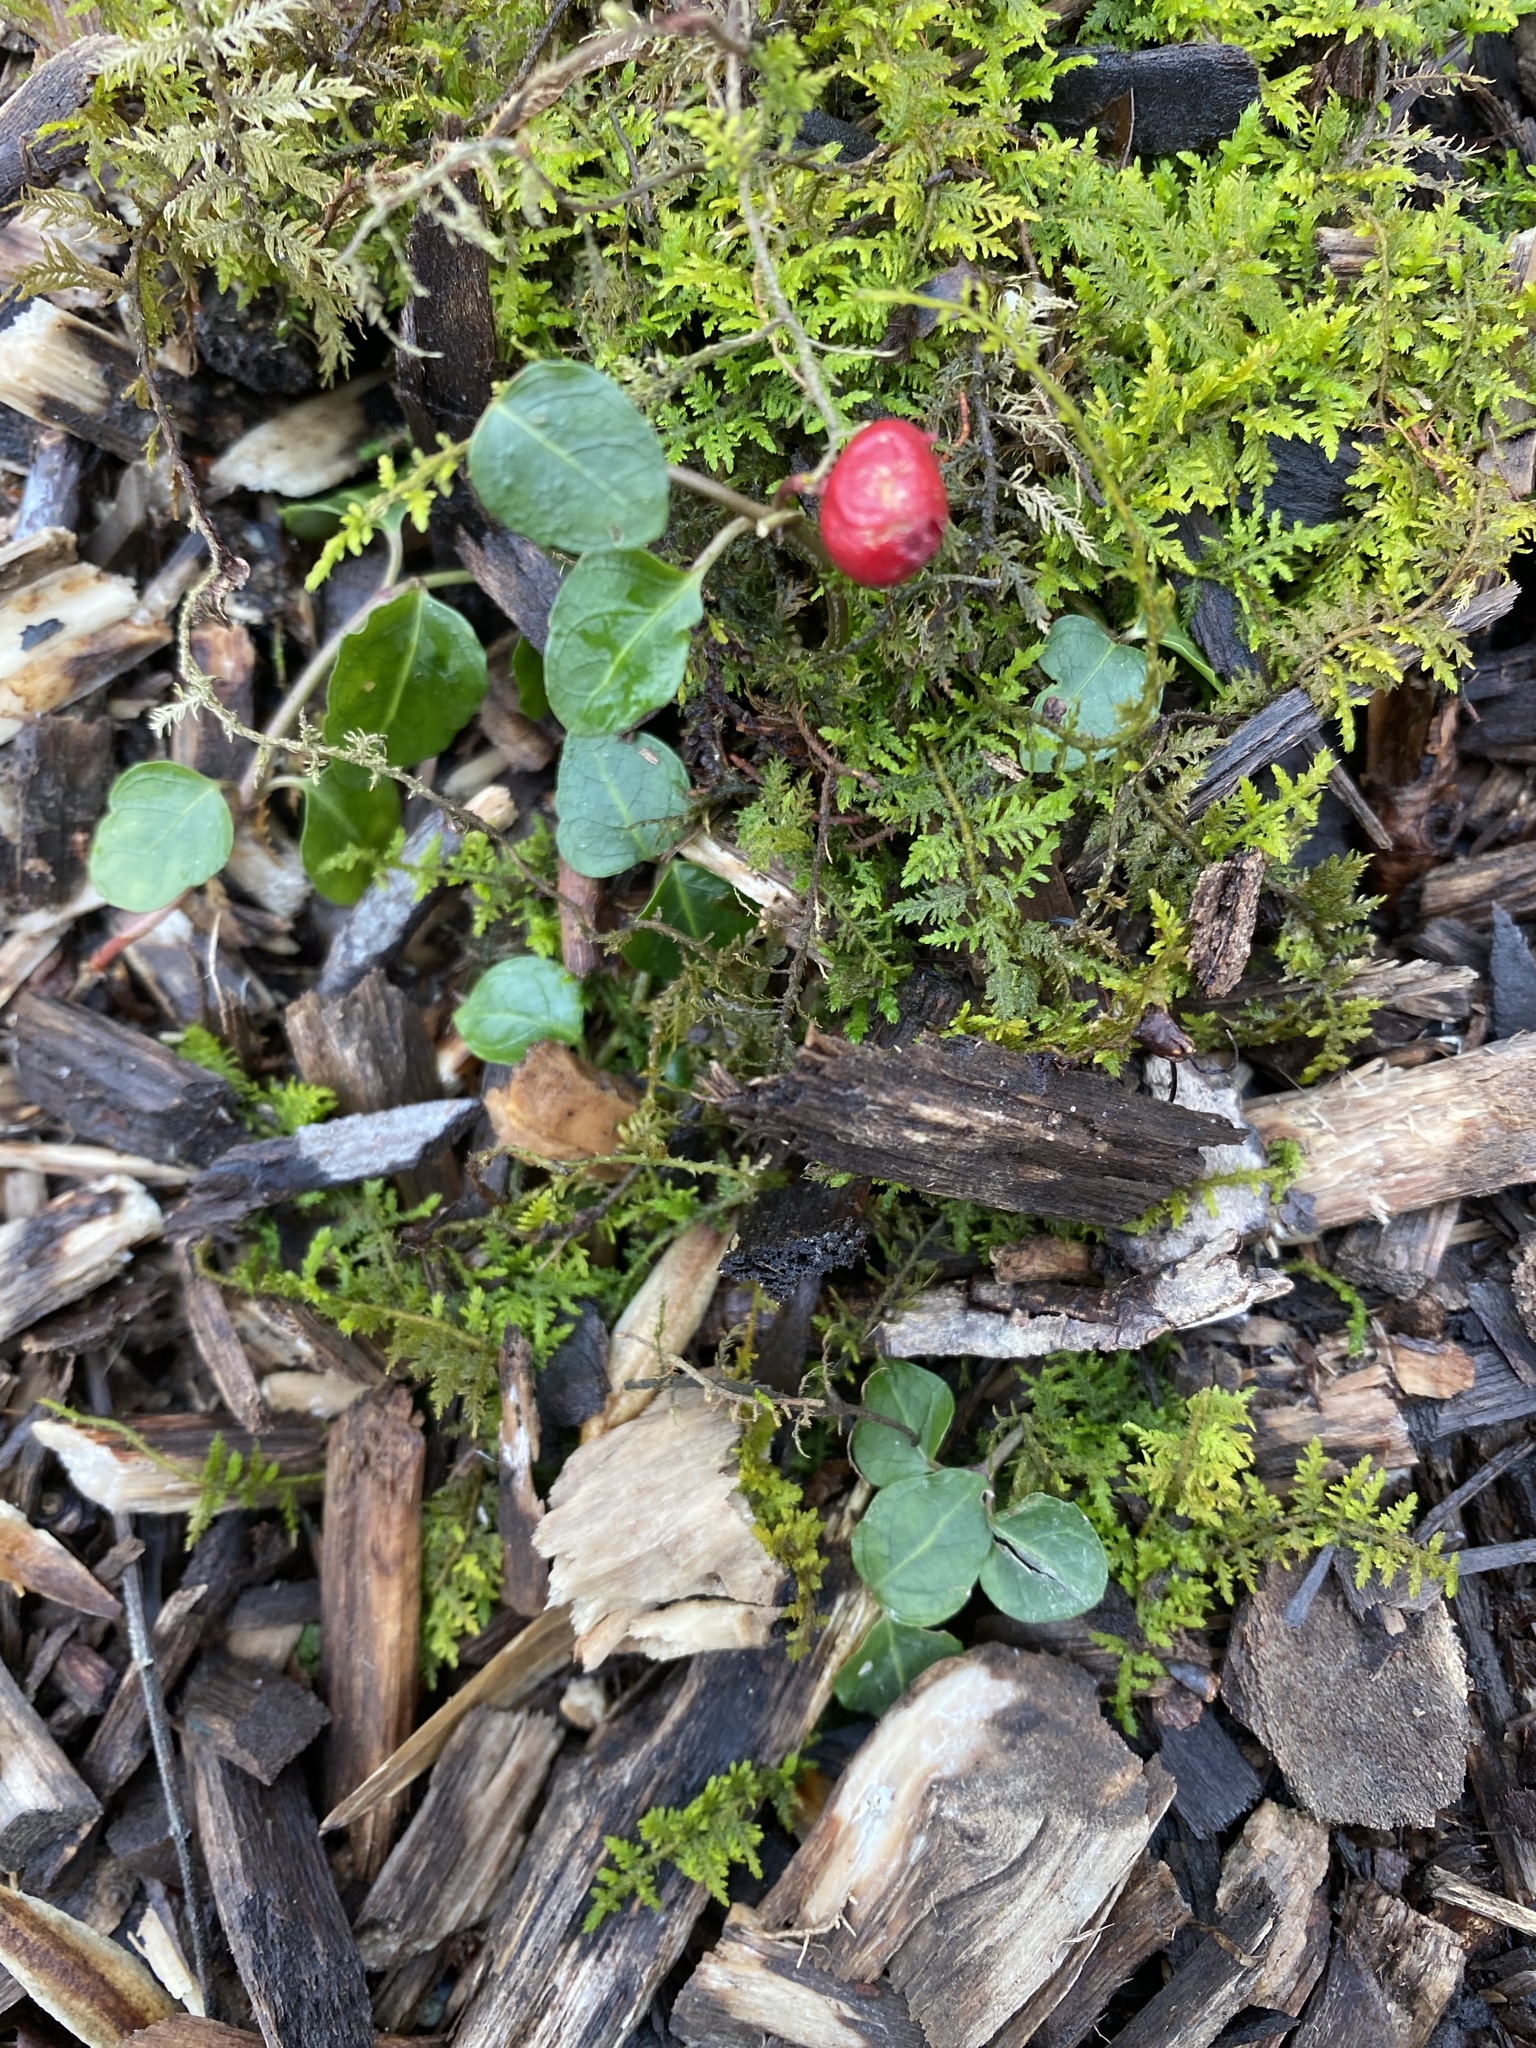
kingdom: Plantae
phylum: Tracheophyta
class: Magnoliopsida
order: Gentianales
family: Rubiaceae
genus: Mitchella
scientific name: Mitchella repens
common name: Partridge-berry
